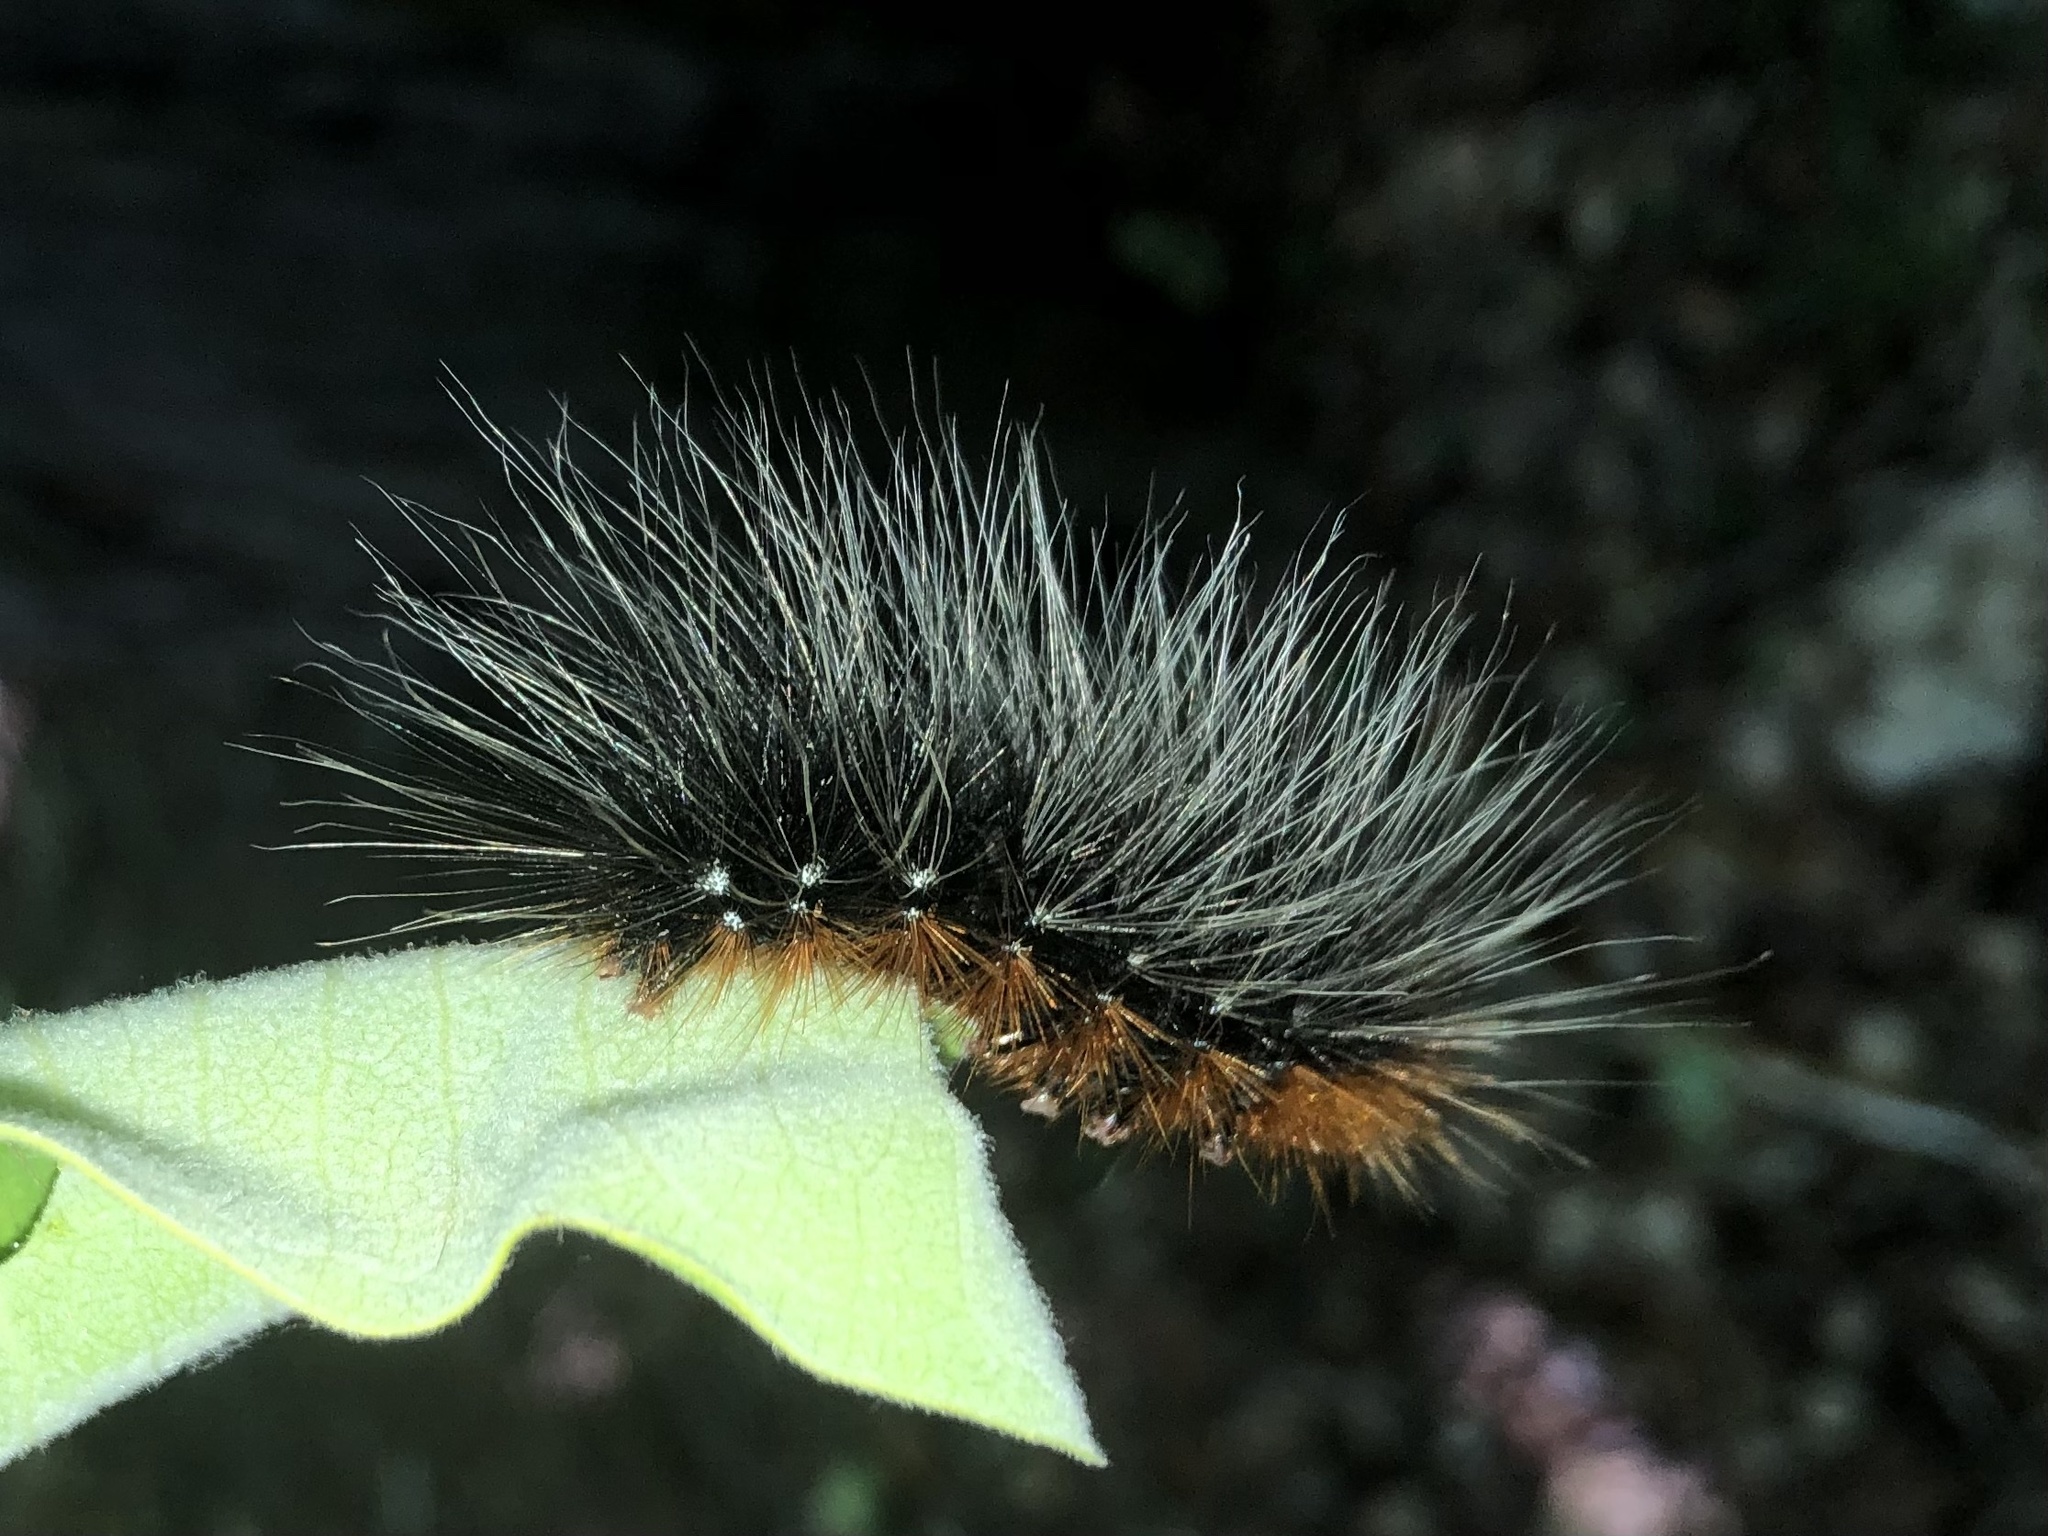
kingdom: Animalia
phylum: Arthropoda
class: Insecta
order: Lepidoptera
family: Erebidae
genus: Arctia
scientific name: Arctia caja
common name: Garden tiger
